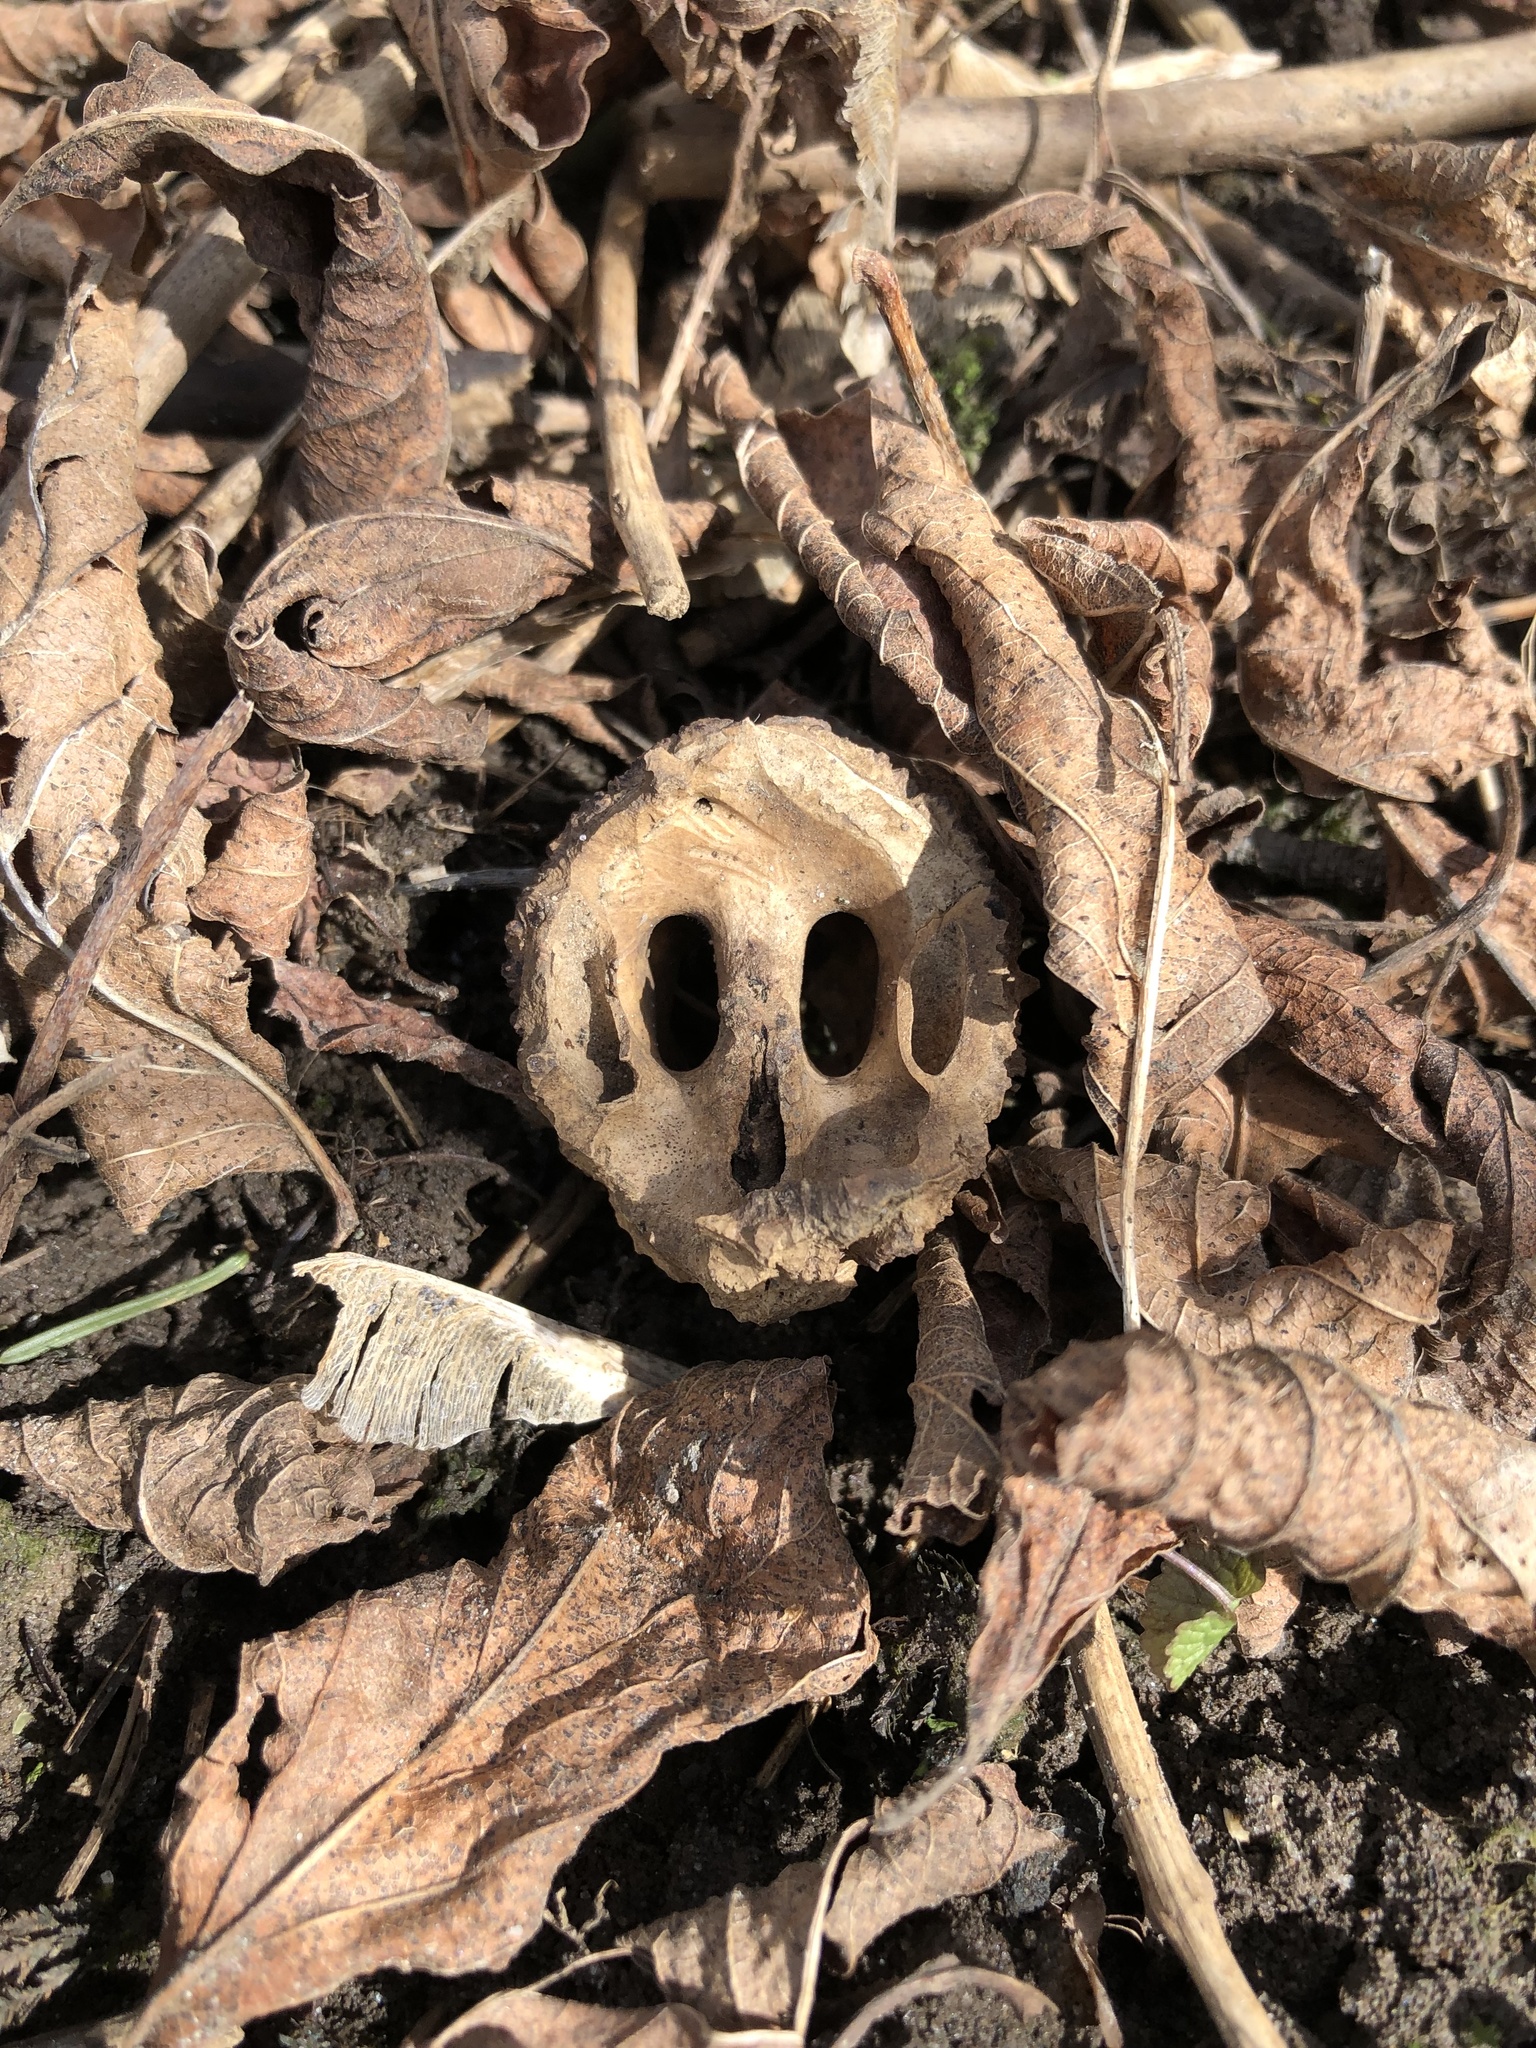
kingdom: Plantae
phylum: Tracheophyta
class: Magnoliopsida
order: Fagales
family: Juglandaceae
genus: Juglans
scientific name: Juglans nigra
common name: Black walnut
